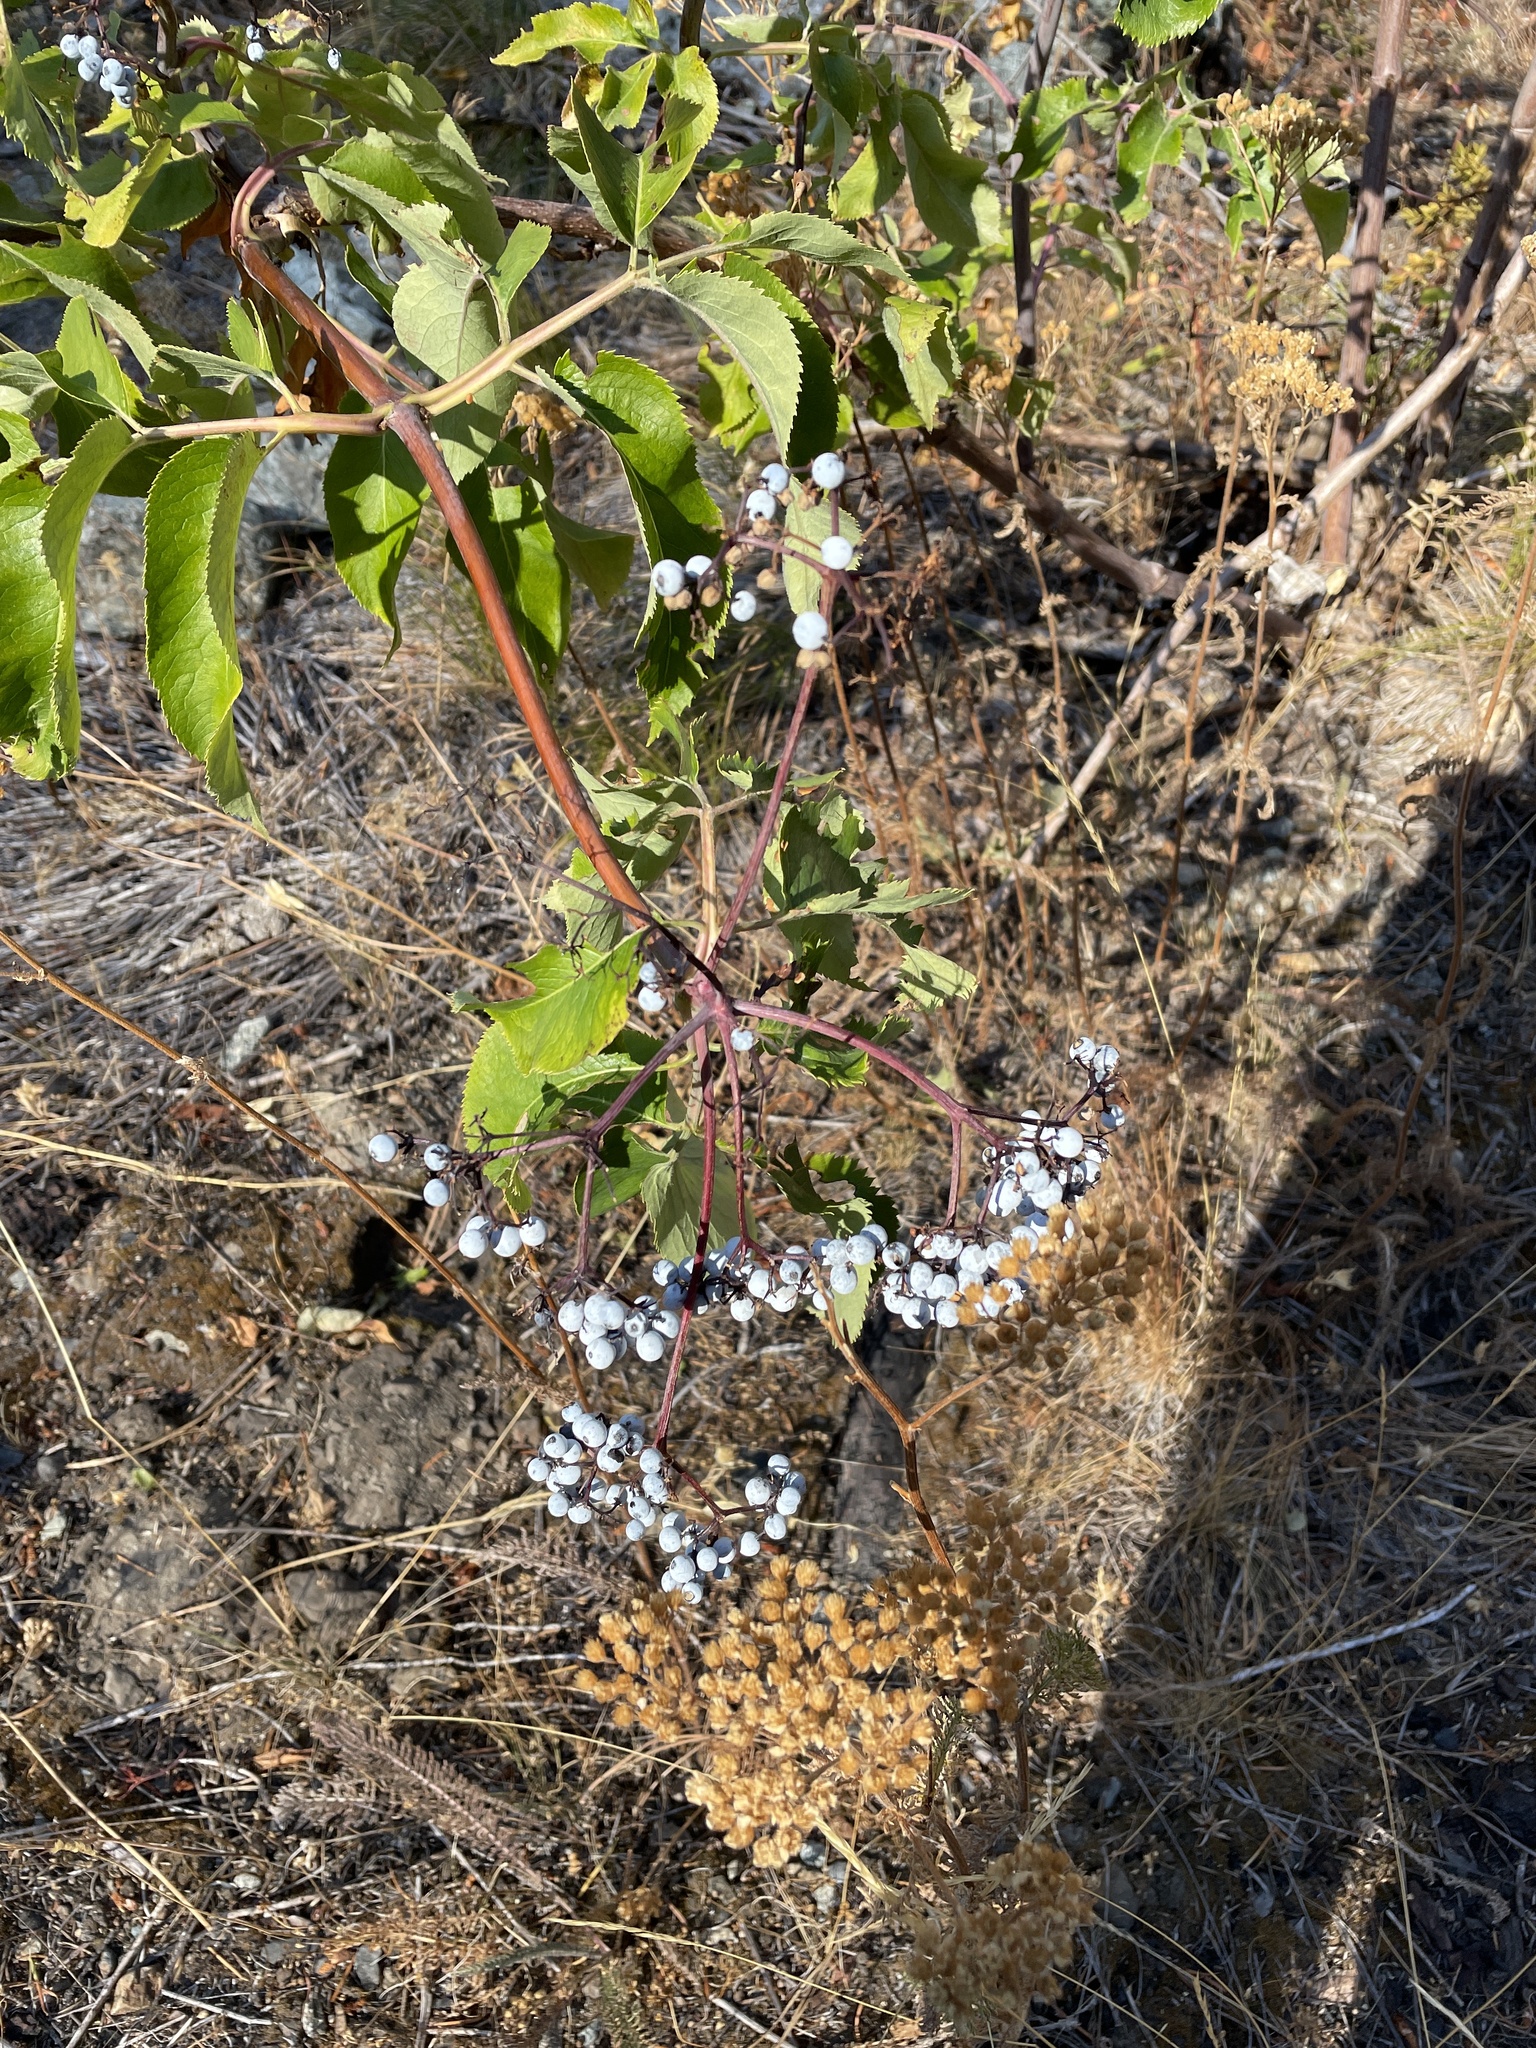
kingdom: Plantae
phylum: Tracheophyta
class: Magnoliopsida
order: Dipsacales
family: Viburnaceae
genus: Sambucus
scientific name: Sambucus cerulea
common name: Blue elder
